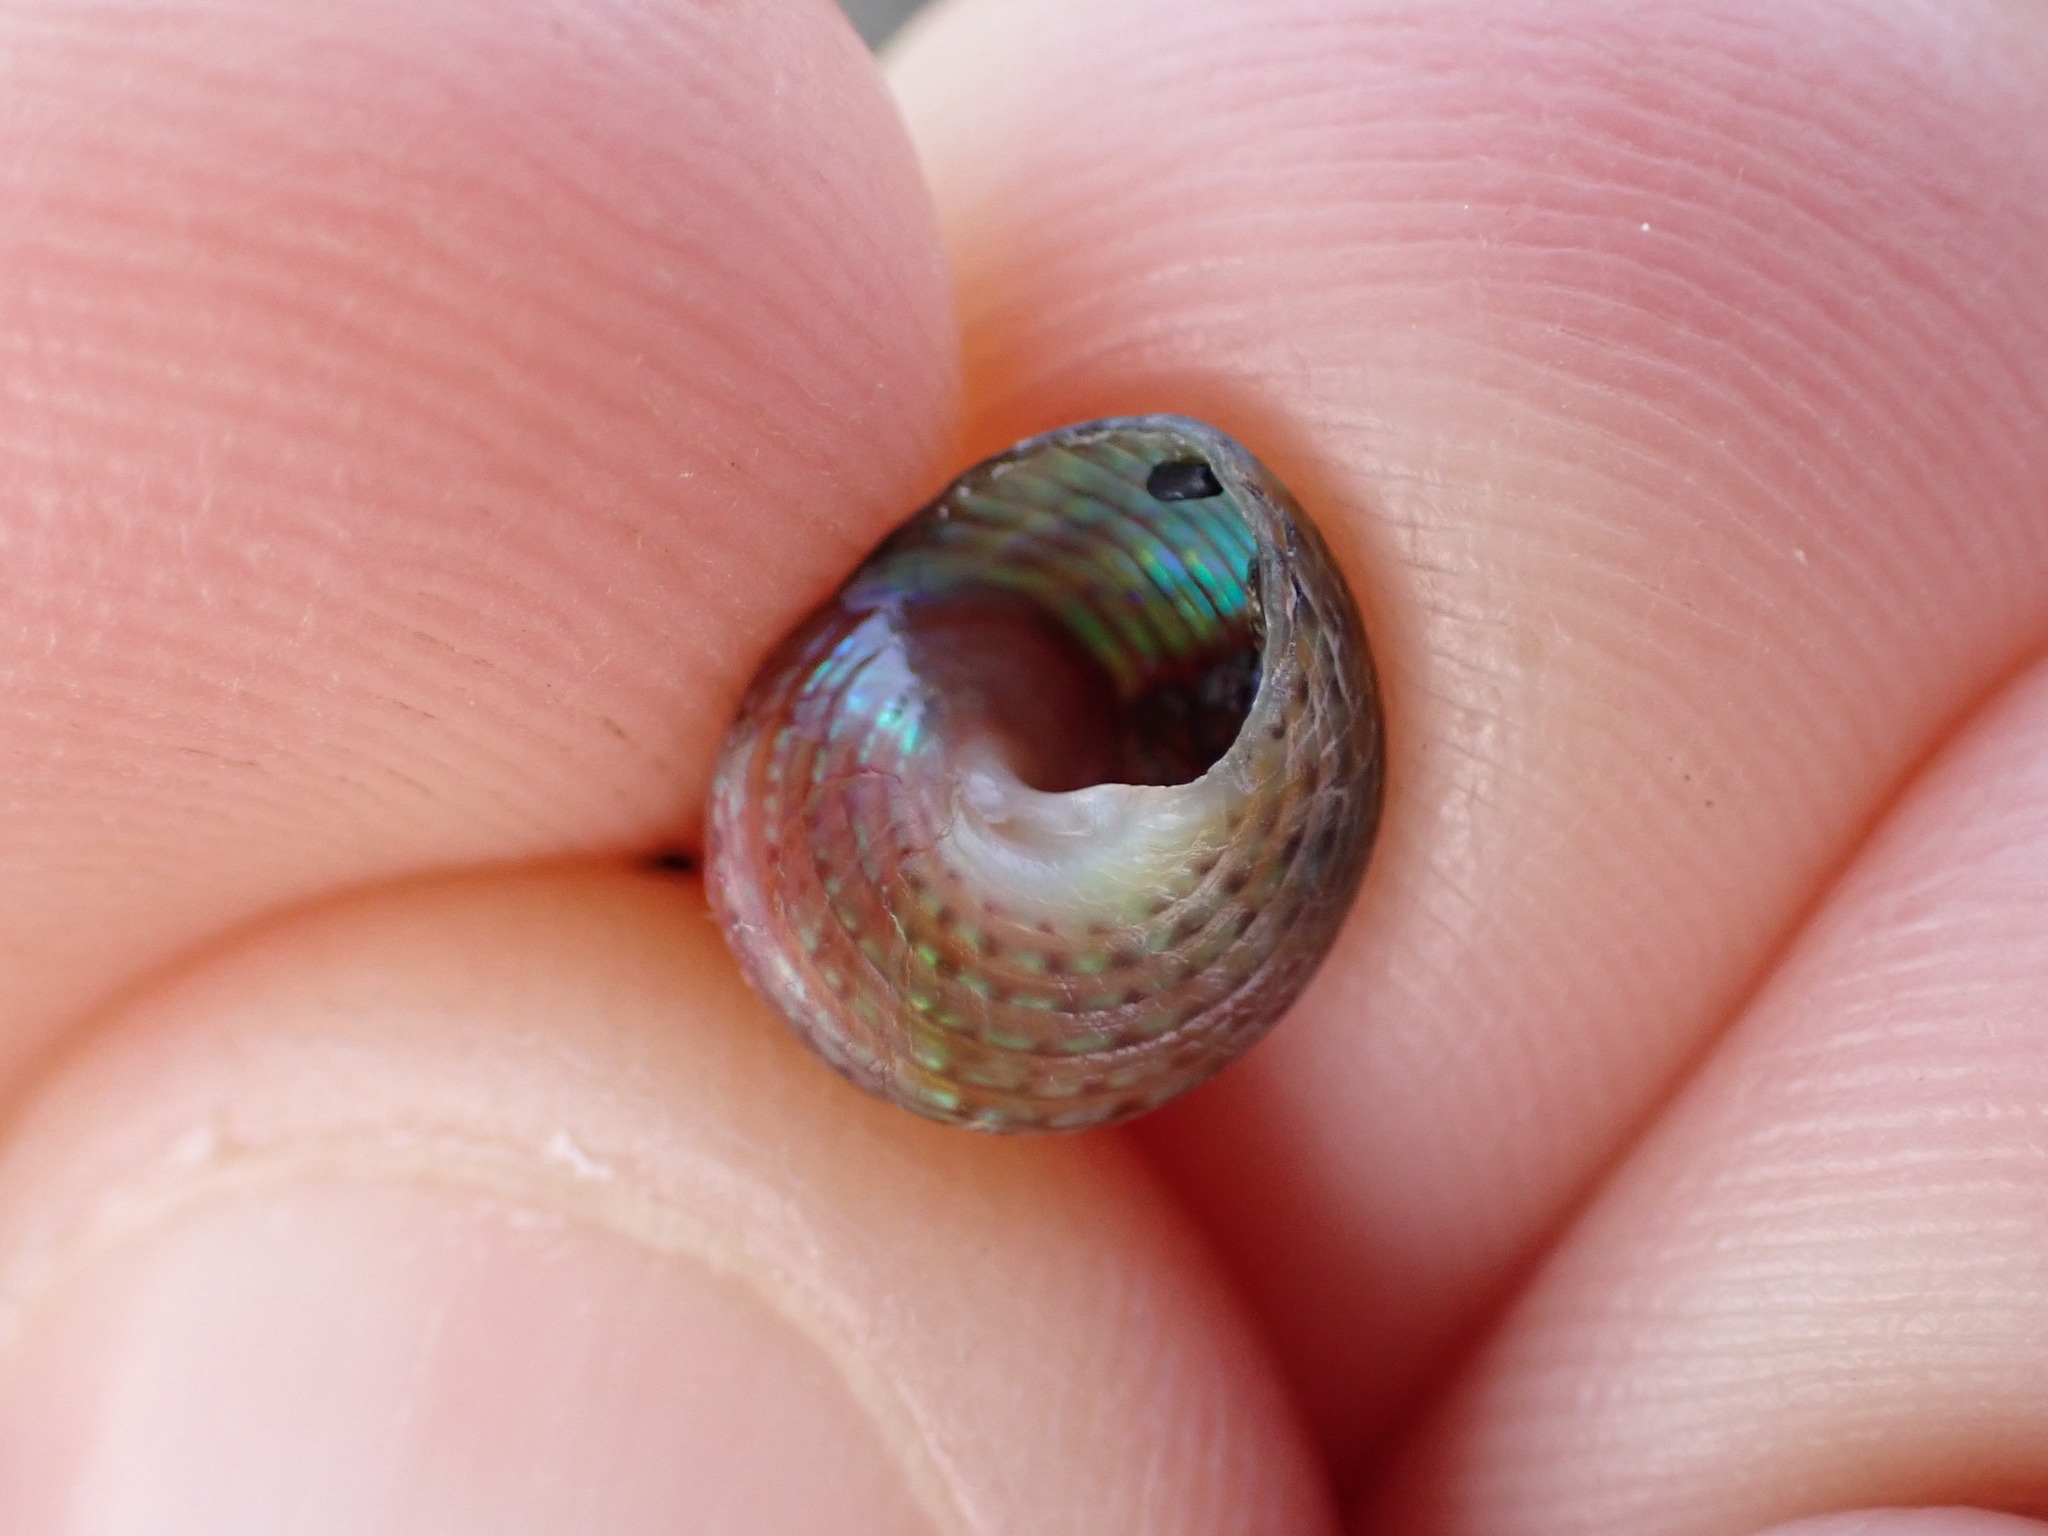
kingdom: Animalia
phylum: Mollusca
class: Gastropoda
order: Trochida
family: Trochidae
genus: Cantharidus
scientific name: Cantharidus opalus
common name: Opal jewel topsnail
